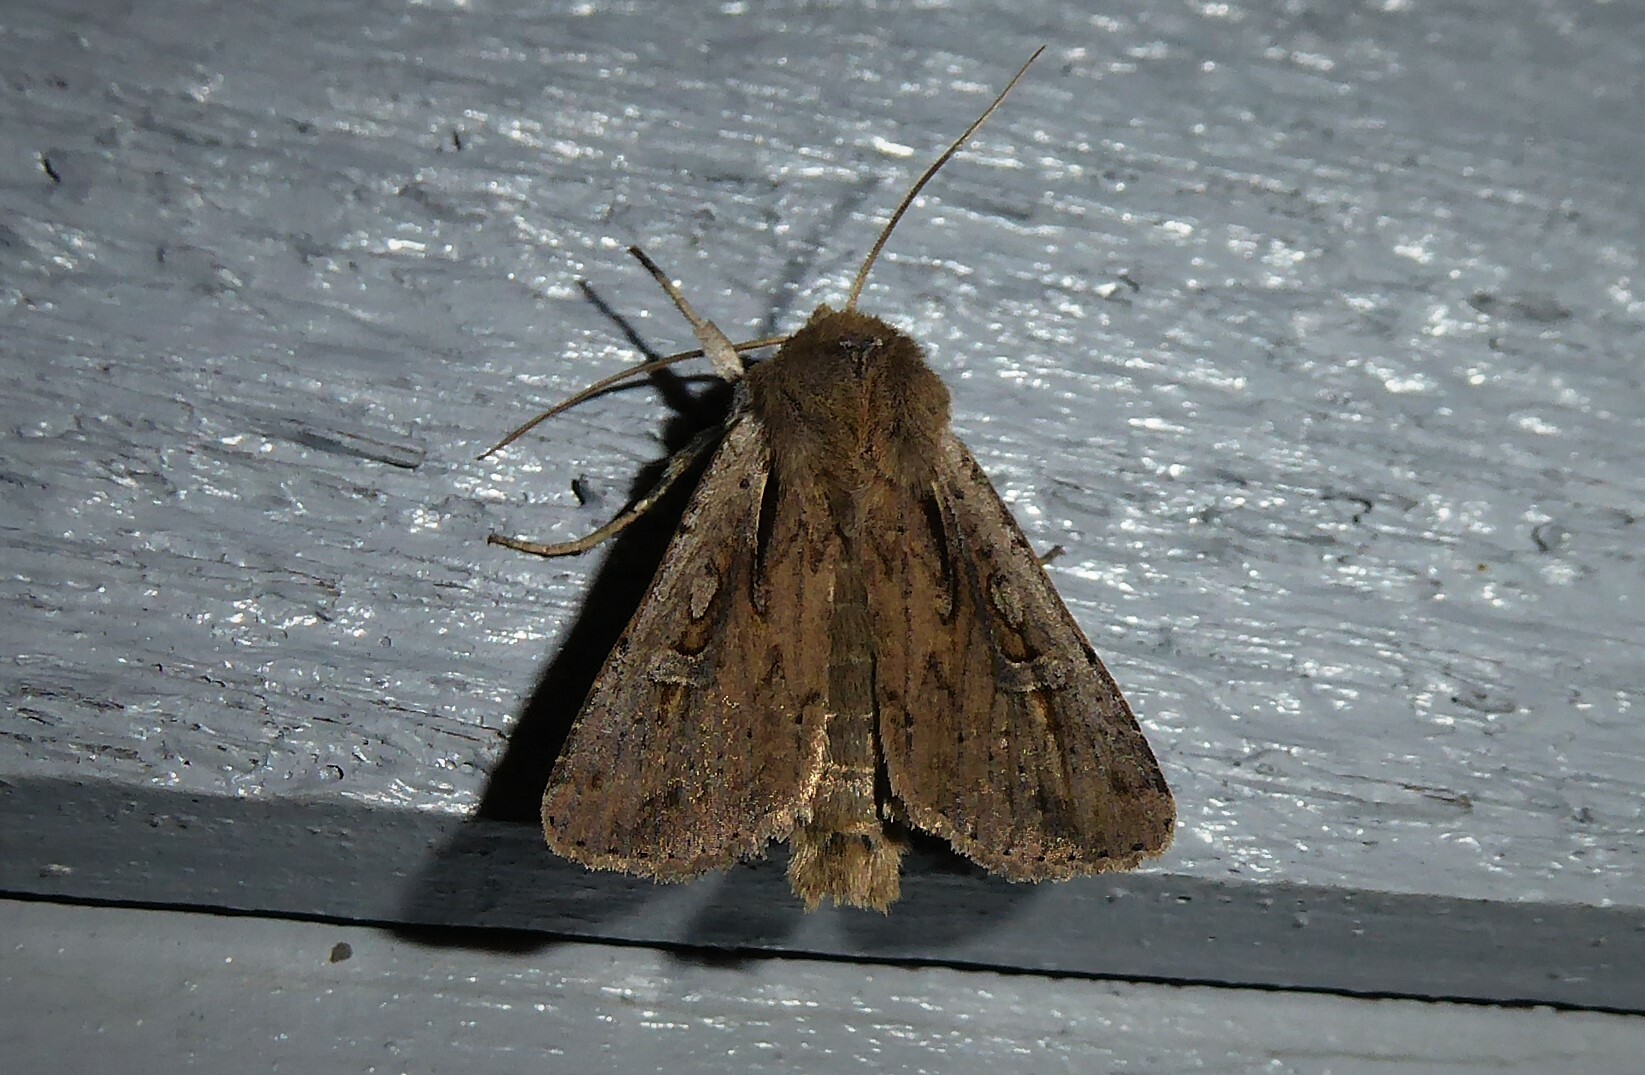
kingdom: Animalia
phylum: Arthropoda
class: Insecta
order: Lepidoptera
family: Noctuidae
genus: Ichneutica
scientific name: Ichneutica atristriga
